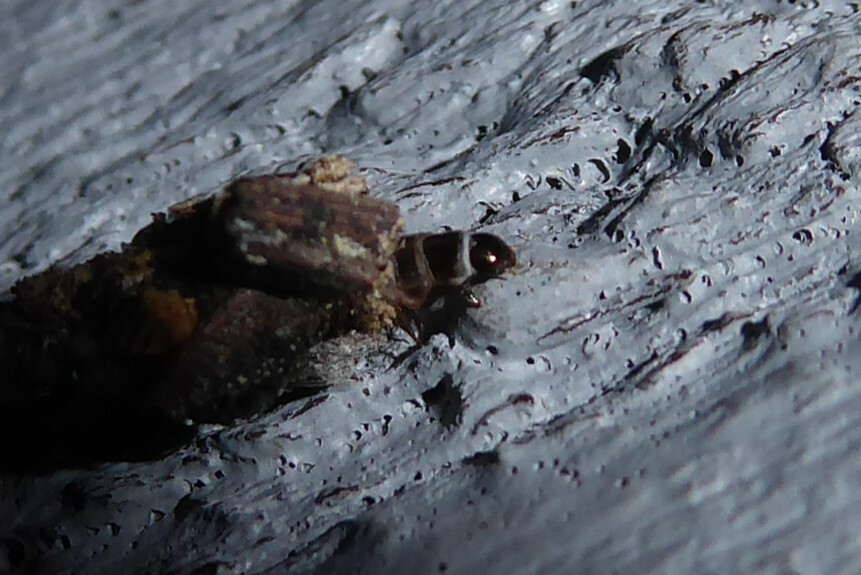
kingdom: Animalia
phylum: Arthropoda
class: Insecta
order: Lepidoptera
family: Psychidae
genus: Liothula
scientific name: Liothula omnivora
